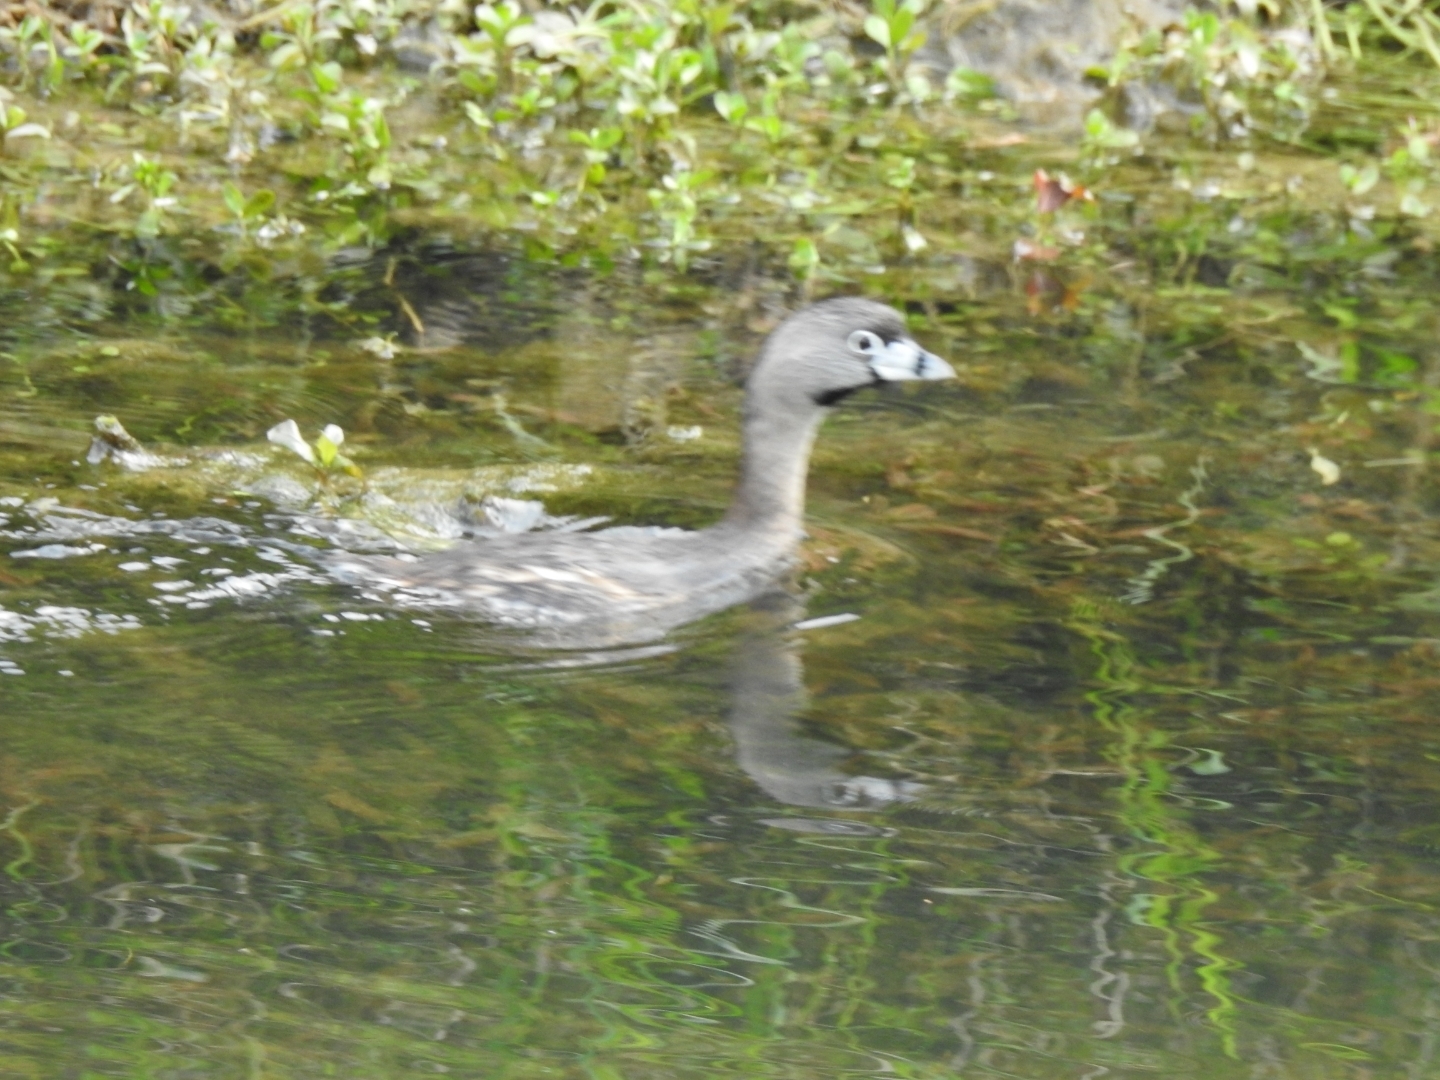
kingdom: Animalia
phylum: Chordata
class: Aves
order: Podicipediformes
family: Podicipedidae
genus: Podilymbus
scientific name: Podilymbus podiceps
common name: Pied-billed grebe
